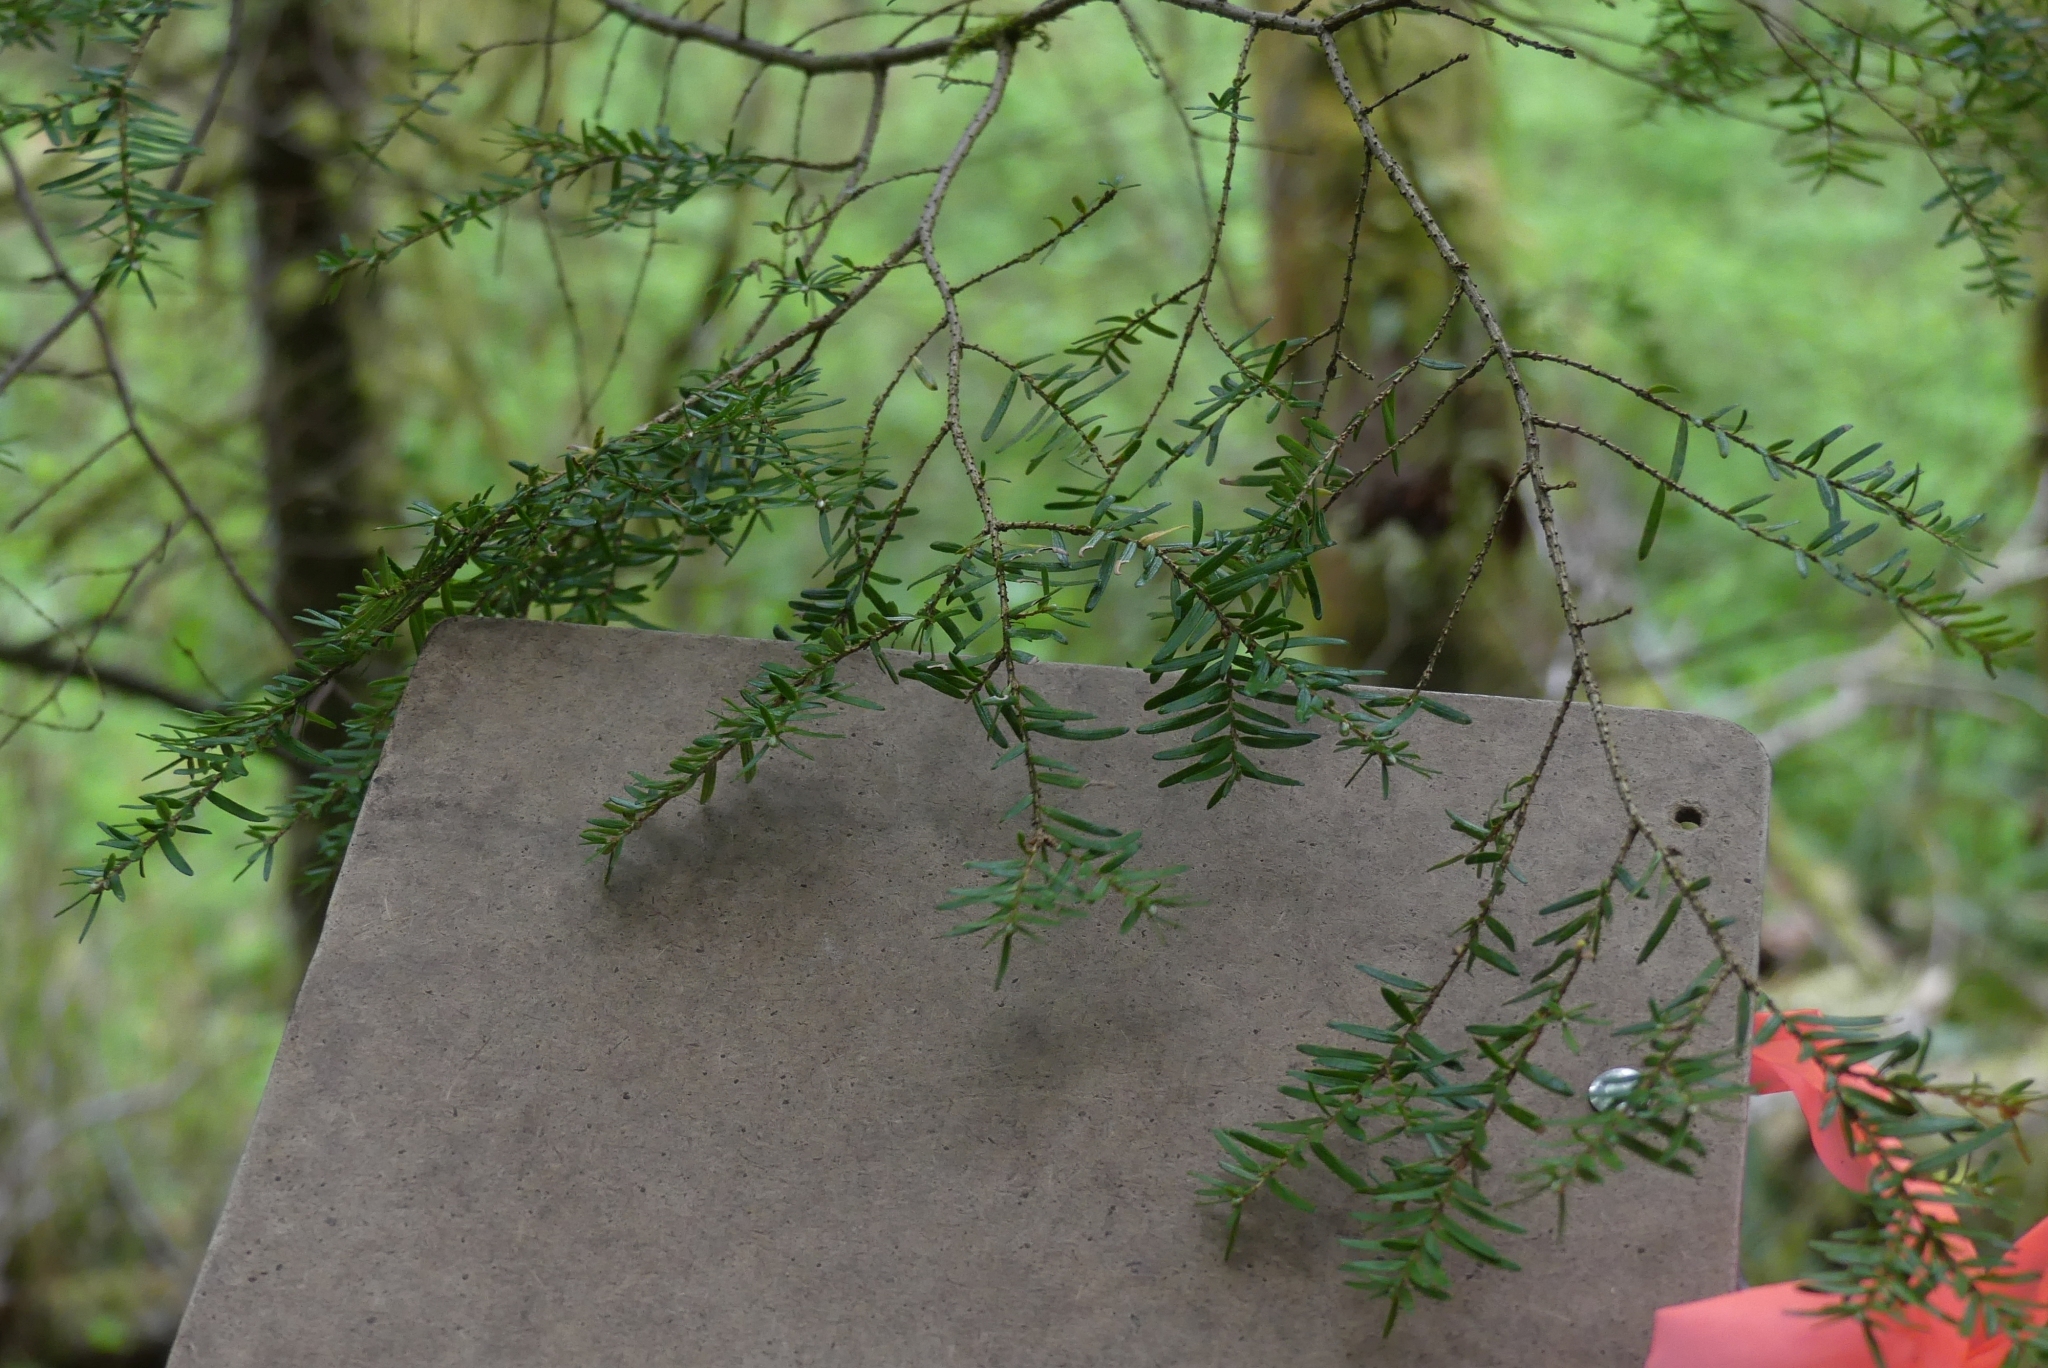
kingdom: Plantae
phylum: Tracheophyta
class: Pinopsida
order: Pinales
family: Pinaceae
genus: Tsuga
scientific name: Tsuga heterophylla
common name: Western hemlock
